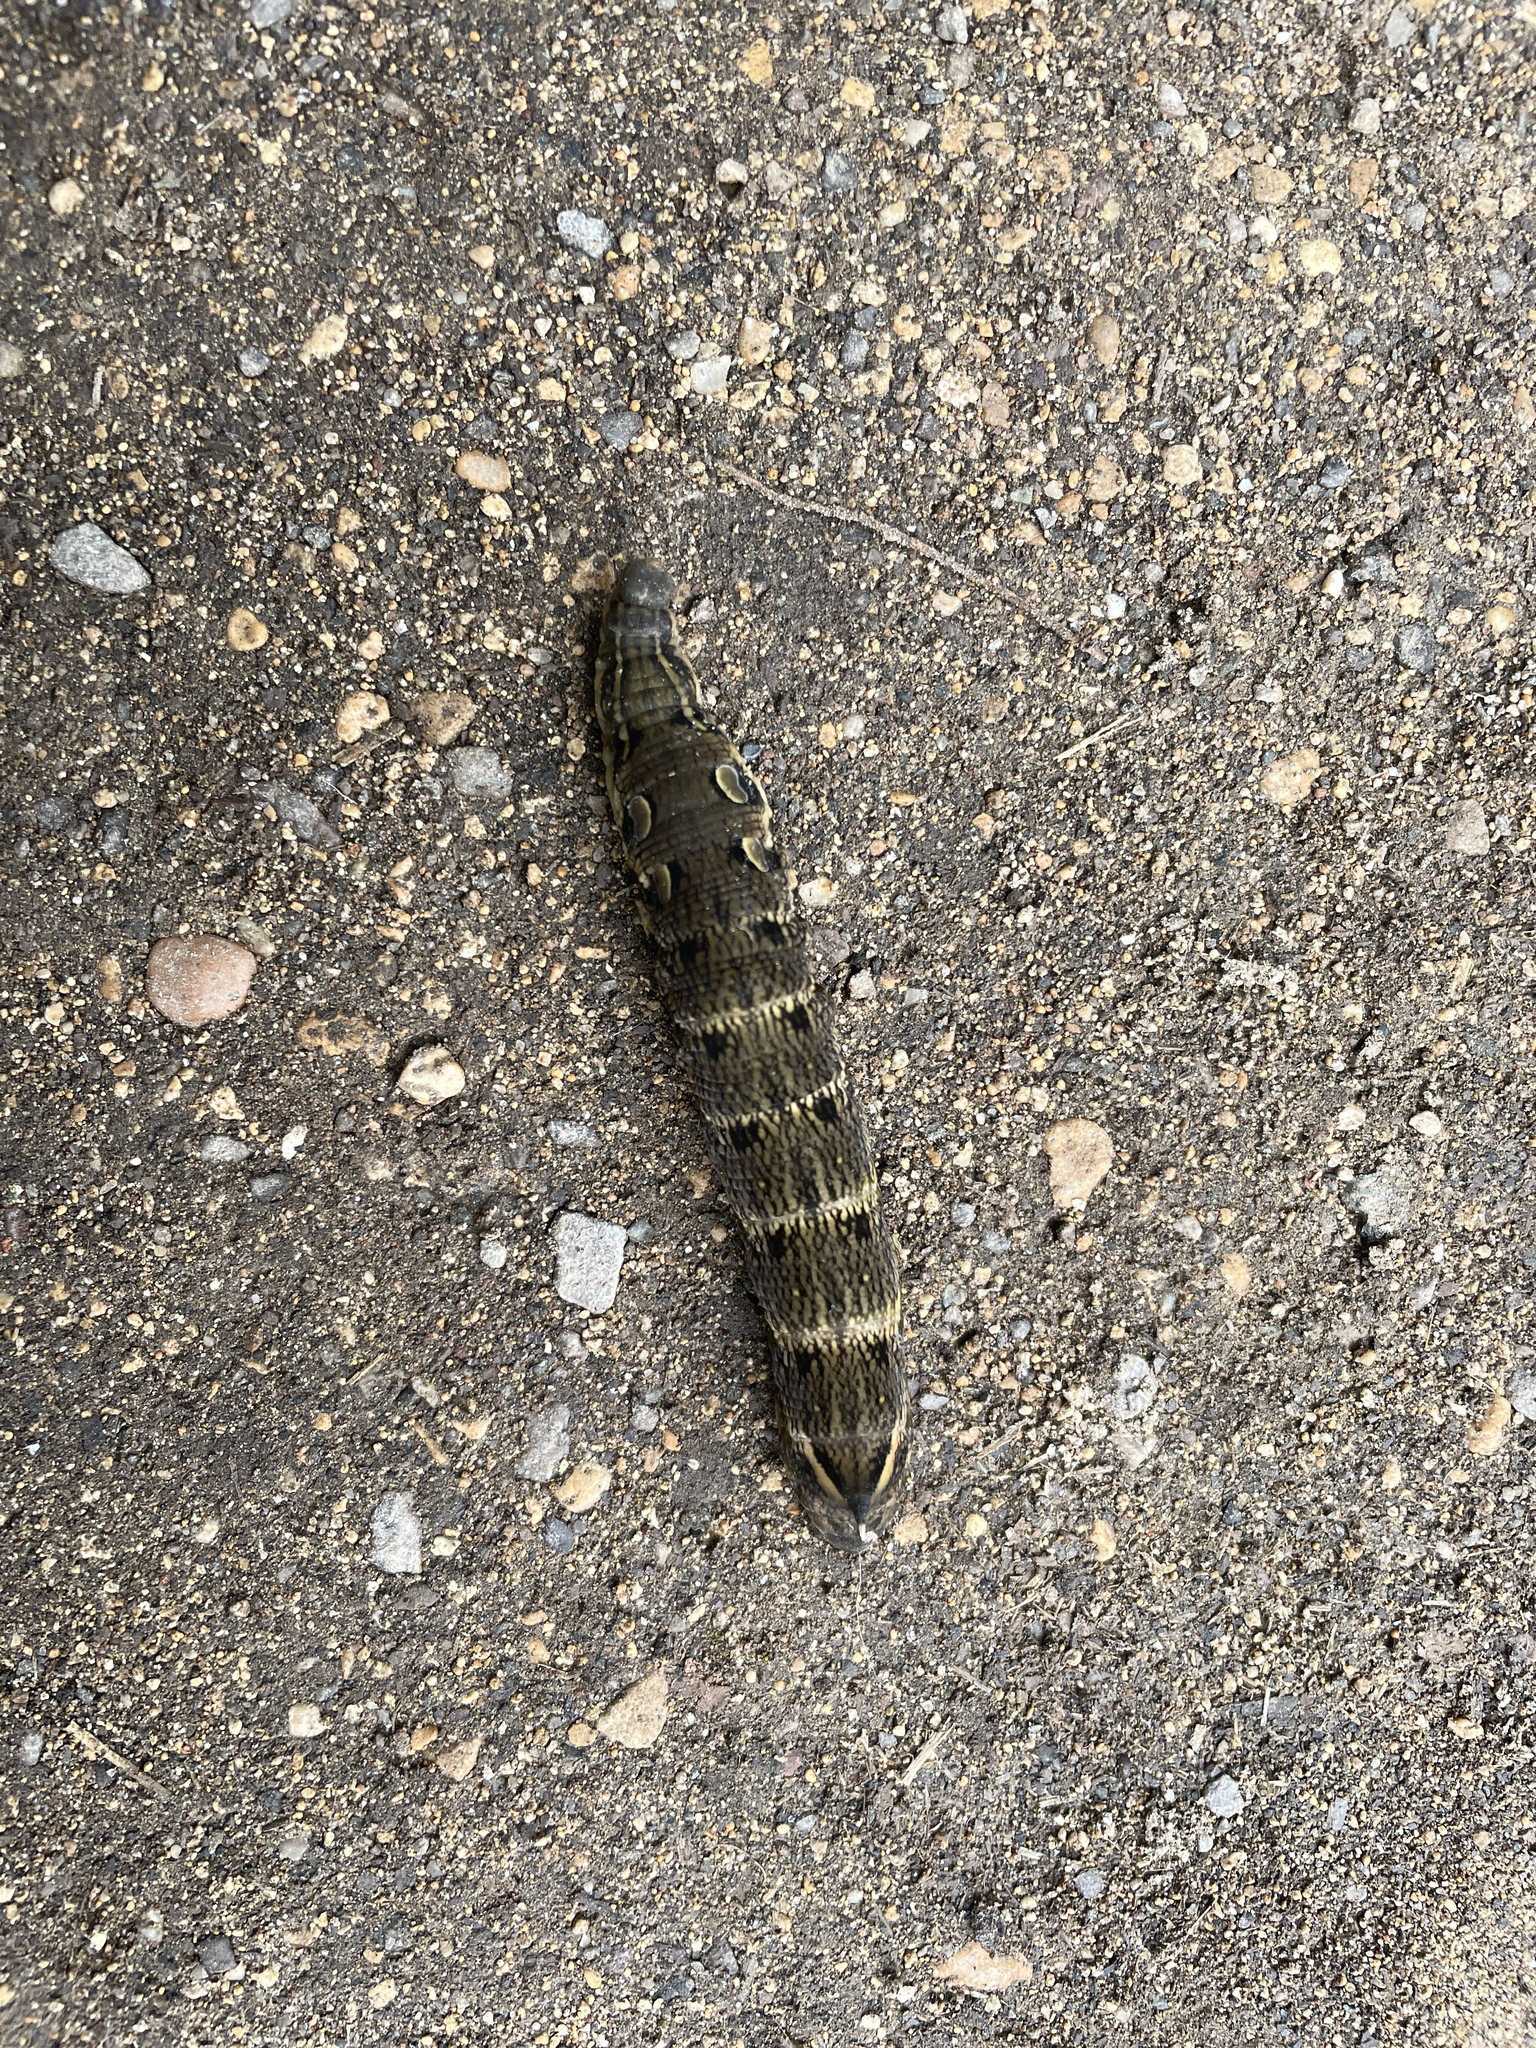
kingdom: Animalia
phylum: Arthropoda
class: Insecta
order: Lepidoptera
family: Sphingidae
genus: Deilephila
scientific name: Deilephila elpenor
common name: Elephant hawk-moth
